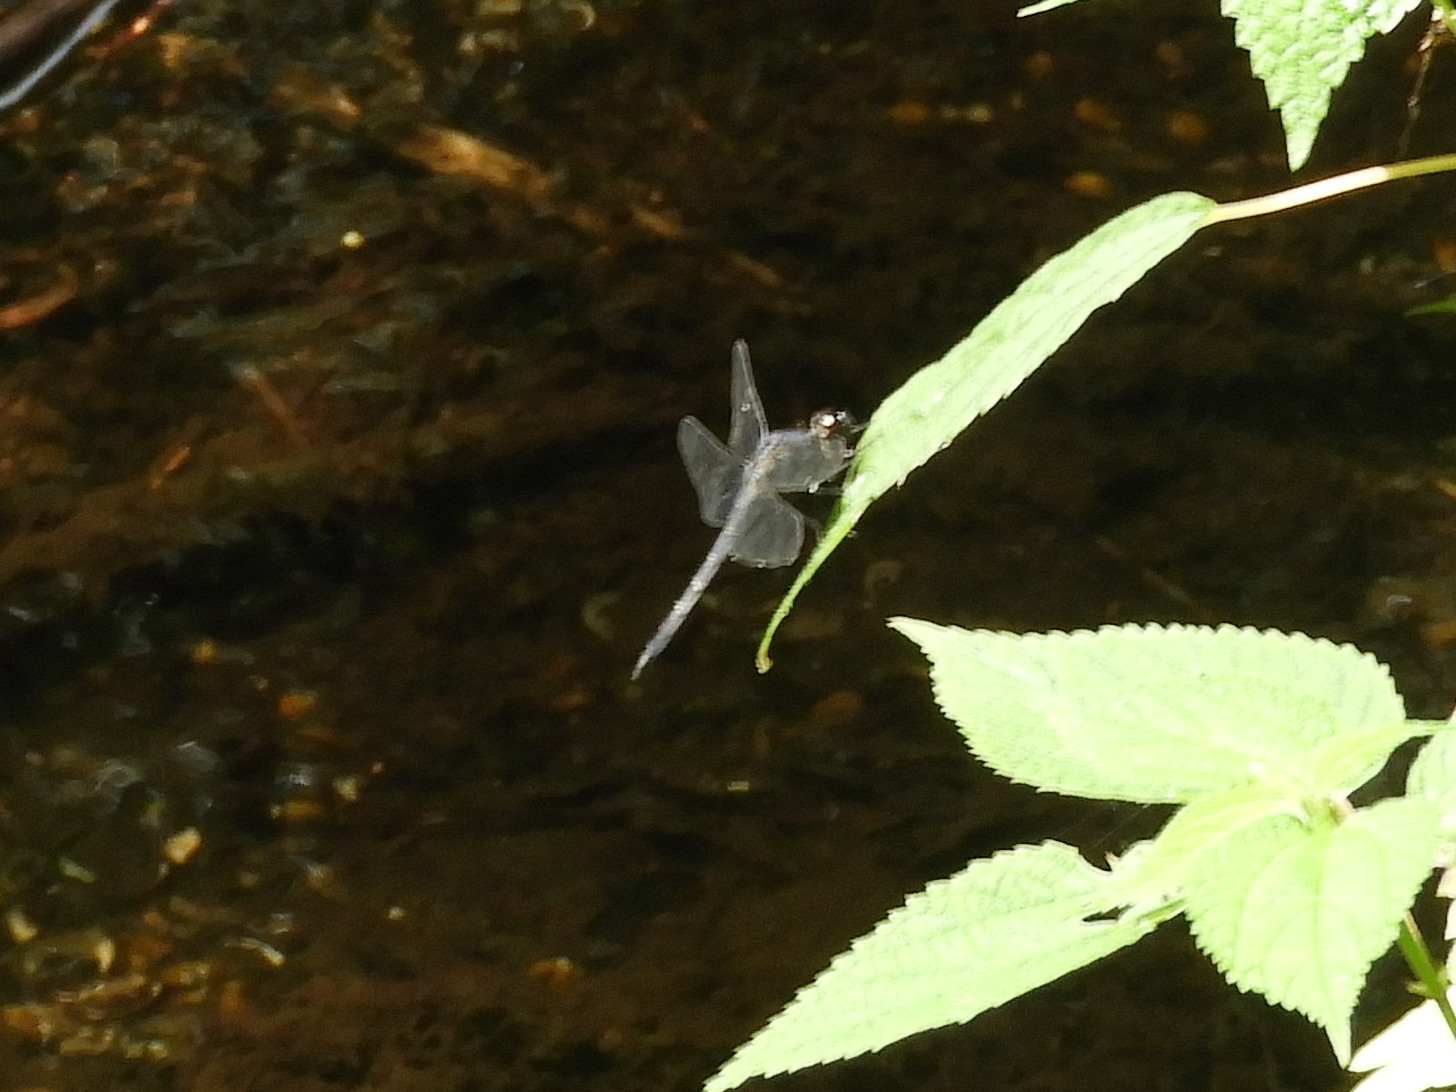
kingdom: Animalia
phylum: Arthropoda
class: Insecta
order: Odonata
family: Libellulidae
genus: Libellula
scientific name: Libellula incesta
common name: Slaty skimmer
